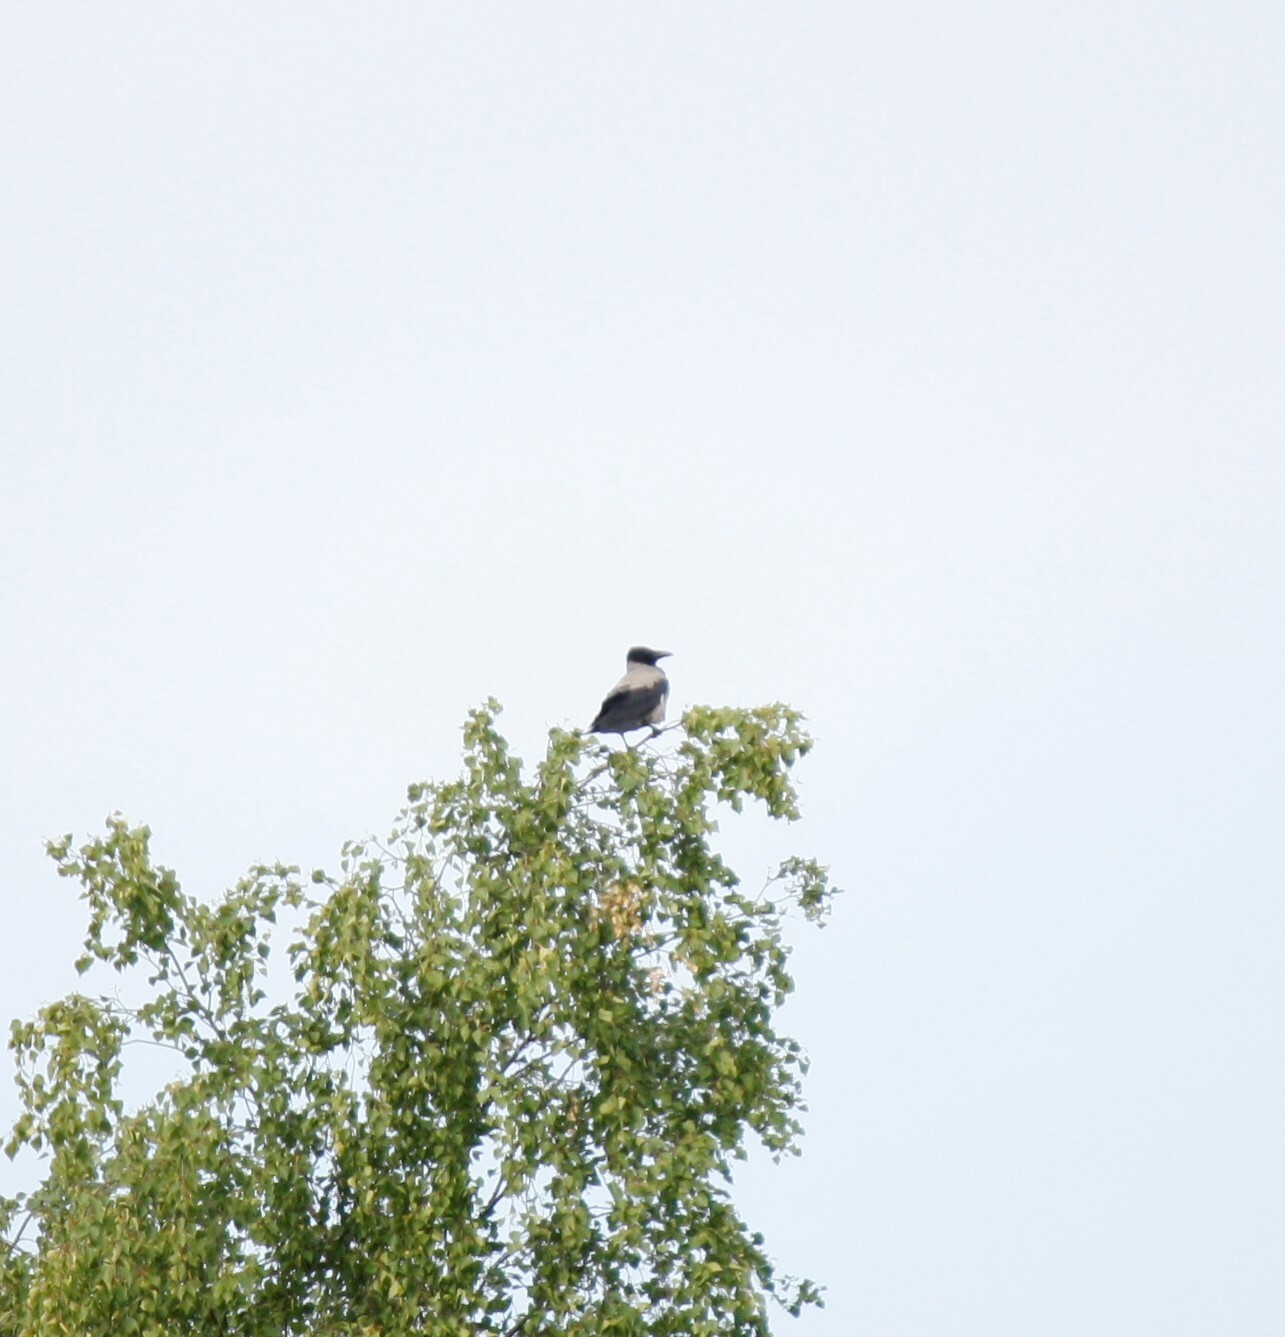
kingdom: Animalia
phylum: Chordata
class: Aves
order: Passeriformes
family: Corvidae
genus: Corvus
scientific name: Corvus cornix
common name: Hooded crow
